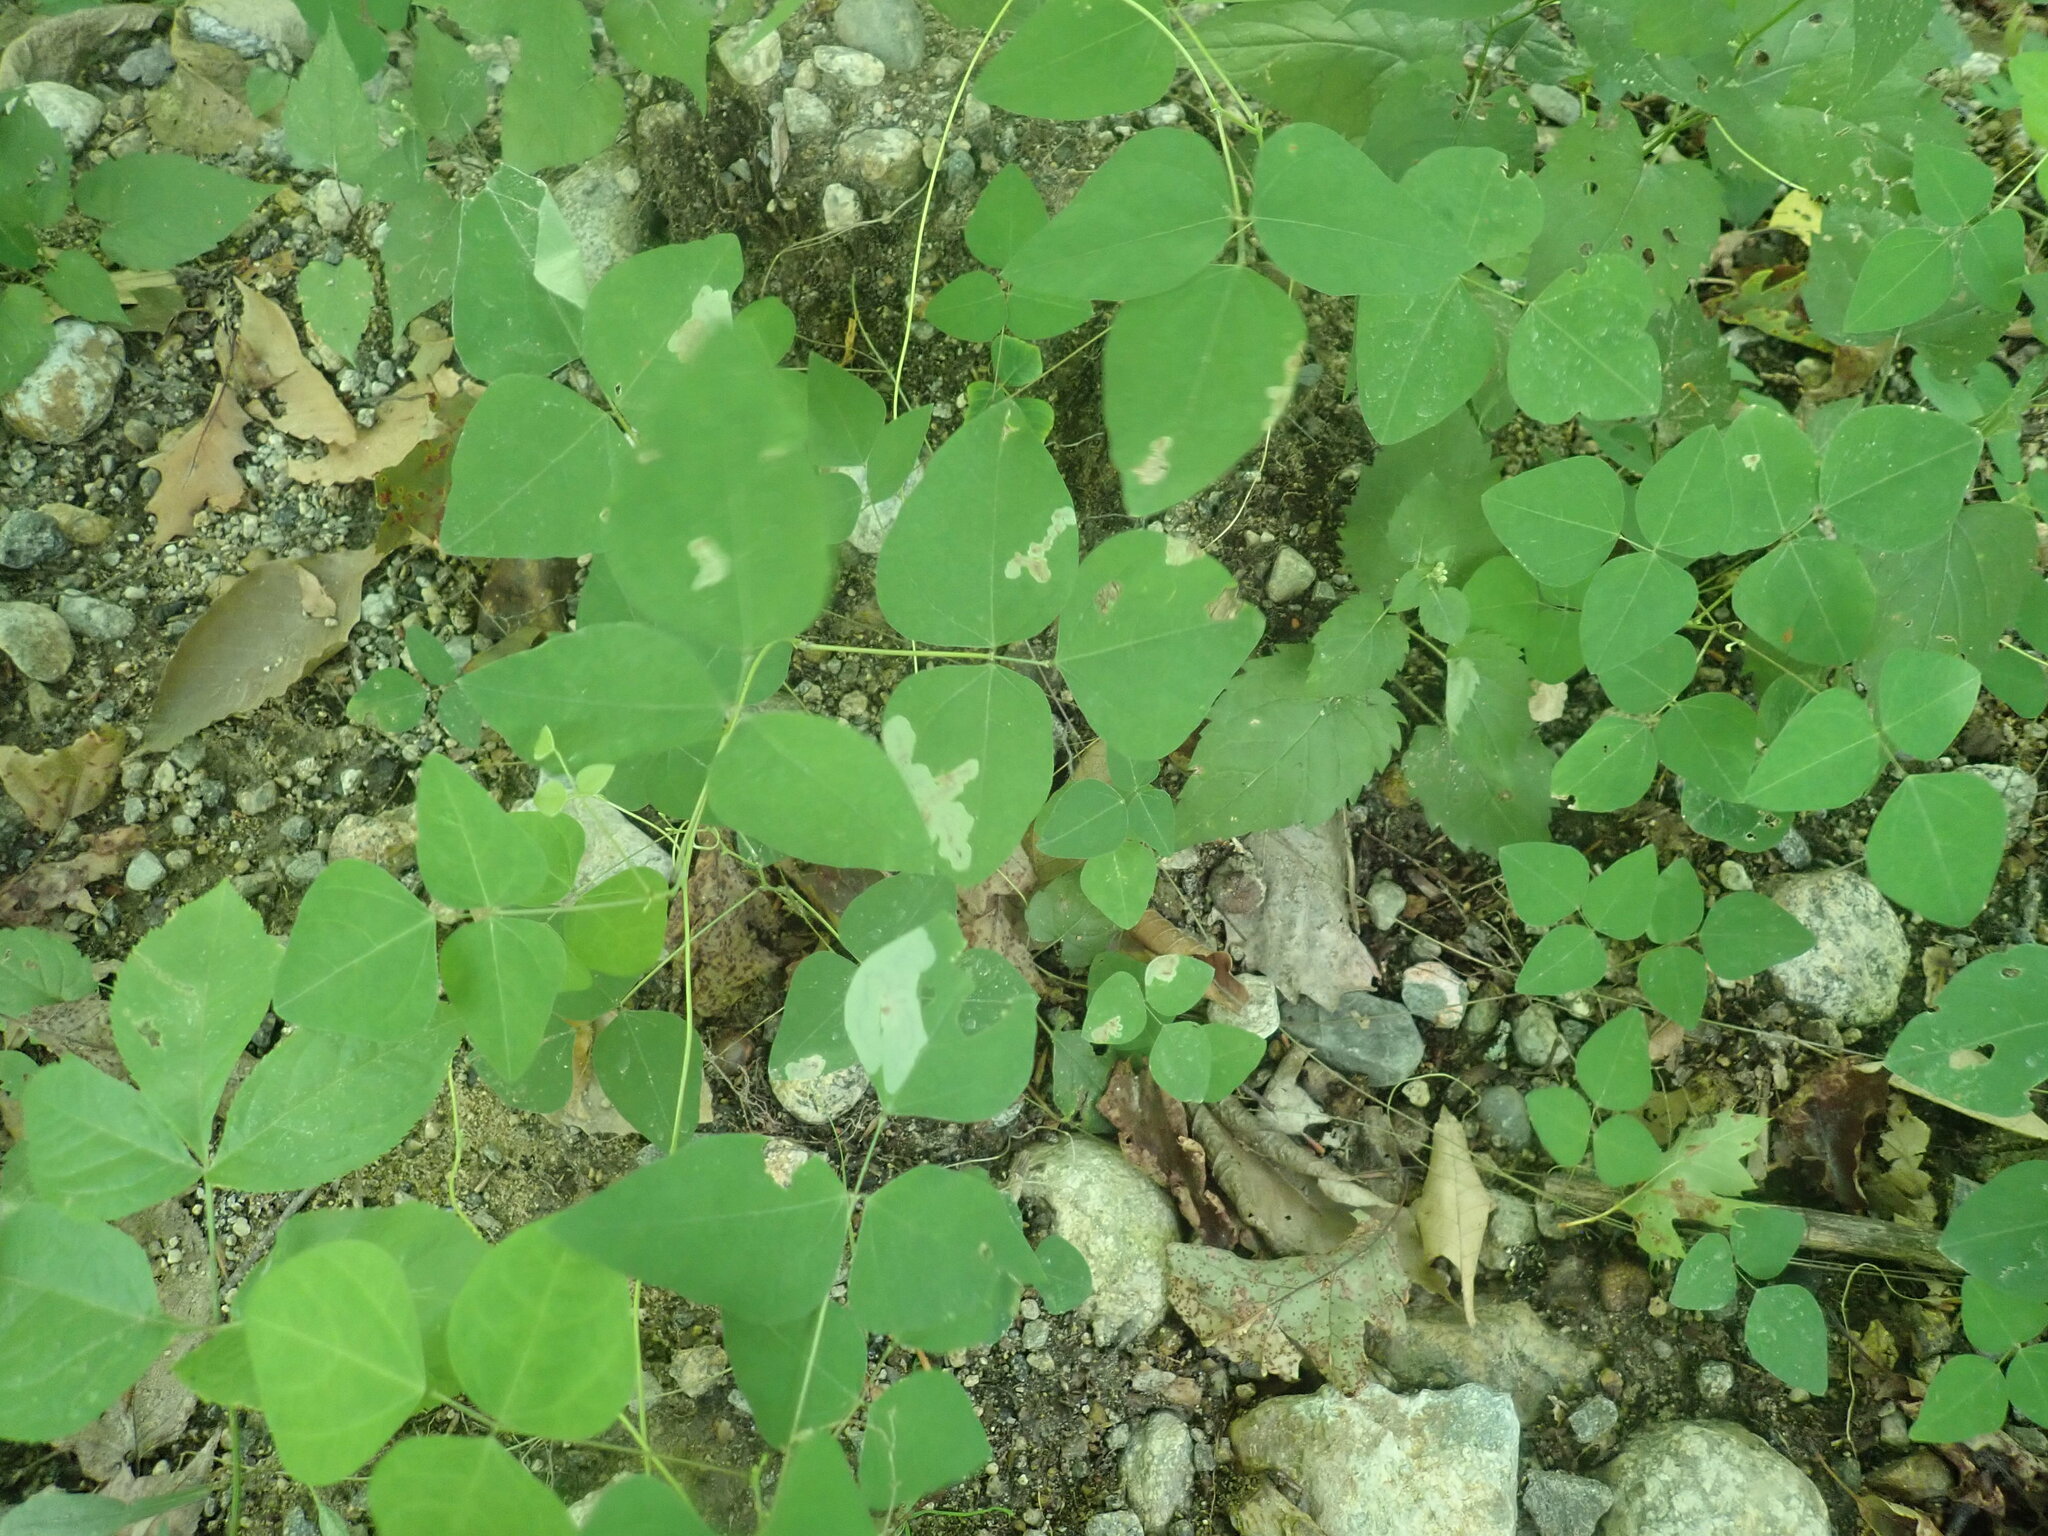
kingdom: Plantae
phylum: Tracheophyta
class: Magnoliopsida
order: Fabales
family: Fabaceae
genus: Amphicarpaea
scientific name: Amphicarpaea bracteata
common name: American hog peanut
